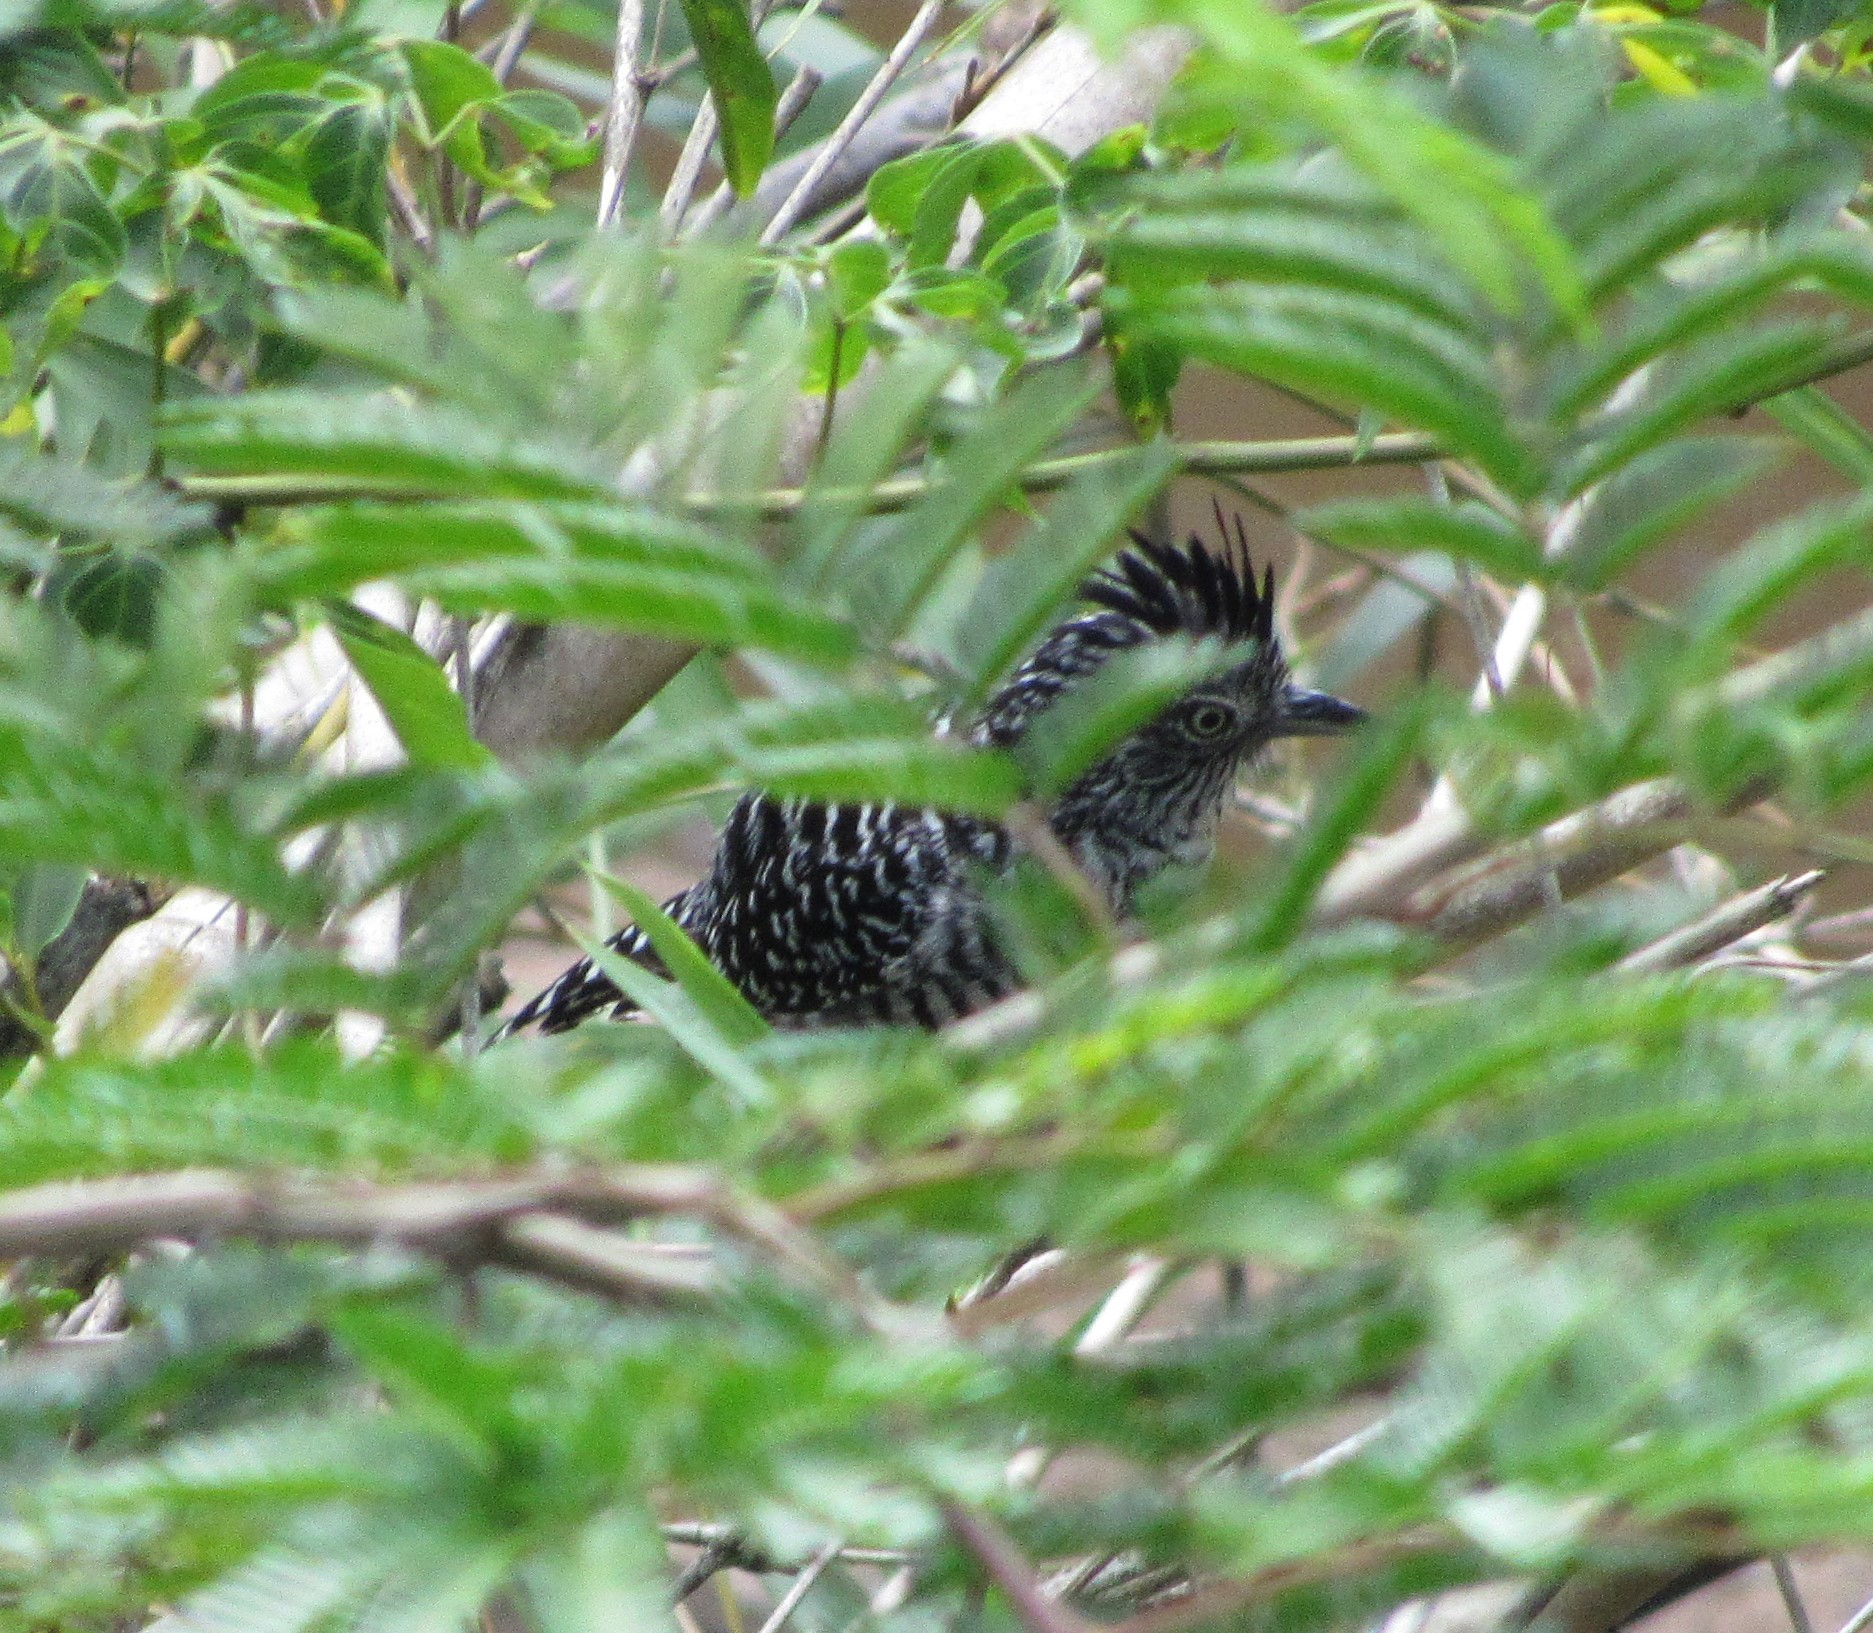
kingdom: Animalia
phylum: Chordata
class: Aves
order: Passeriformes
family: Thamnophilidae
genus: Thamnophilus
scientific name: Thamnophilus doliatus
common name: Barred antshrike
